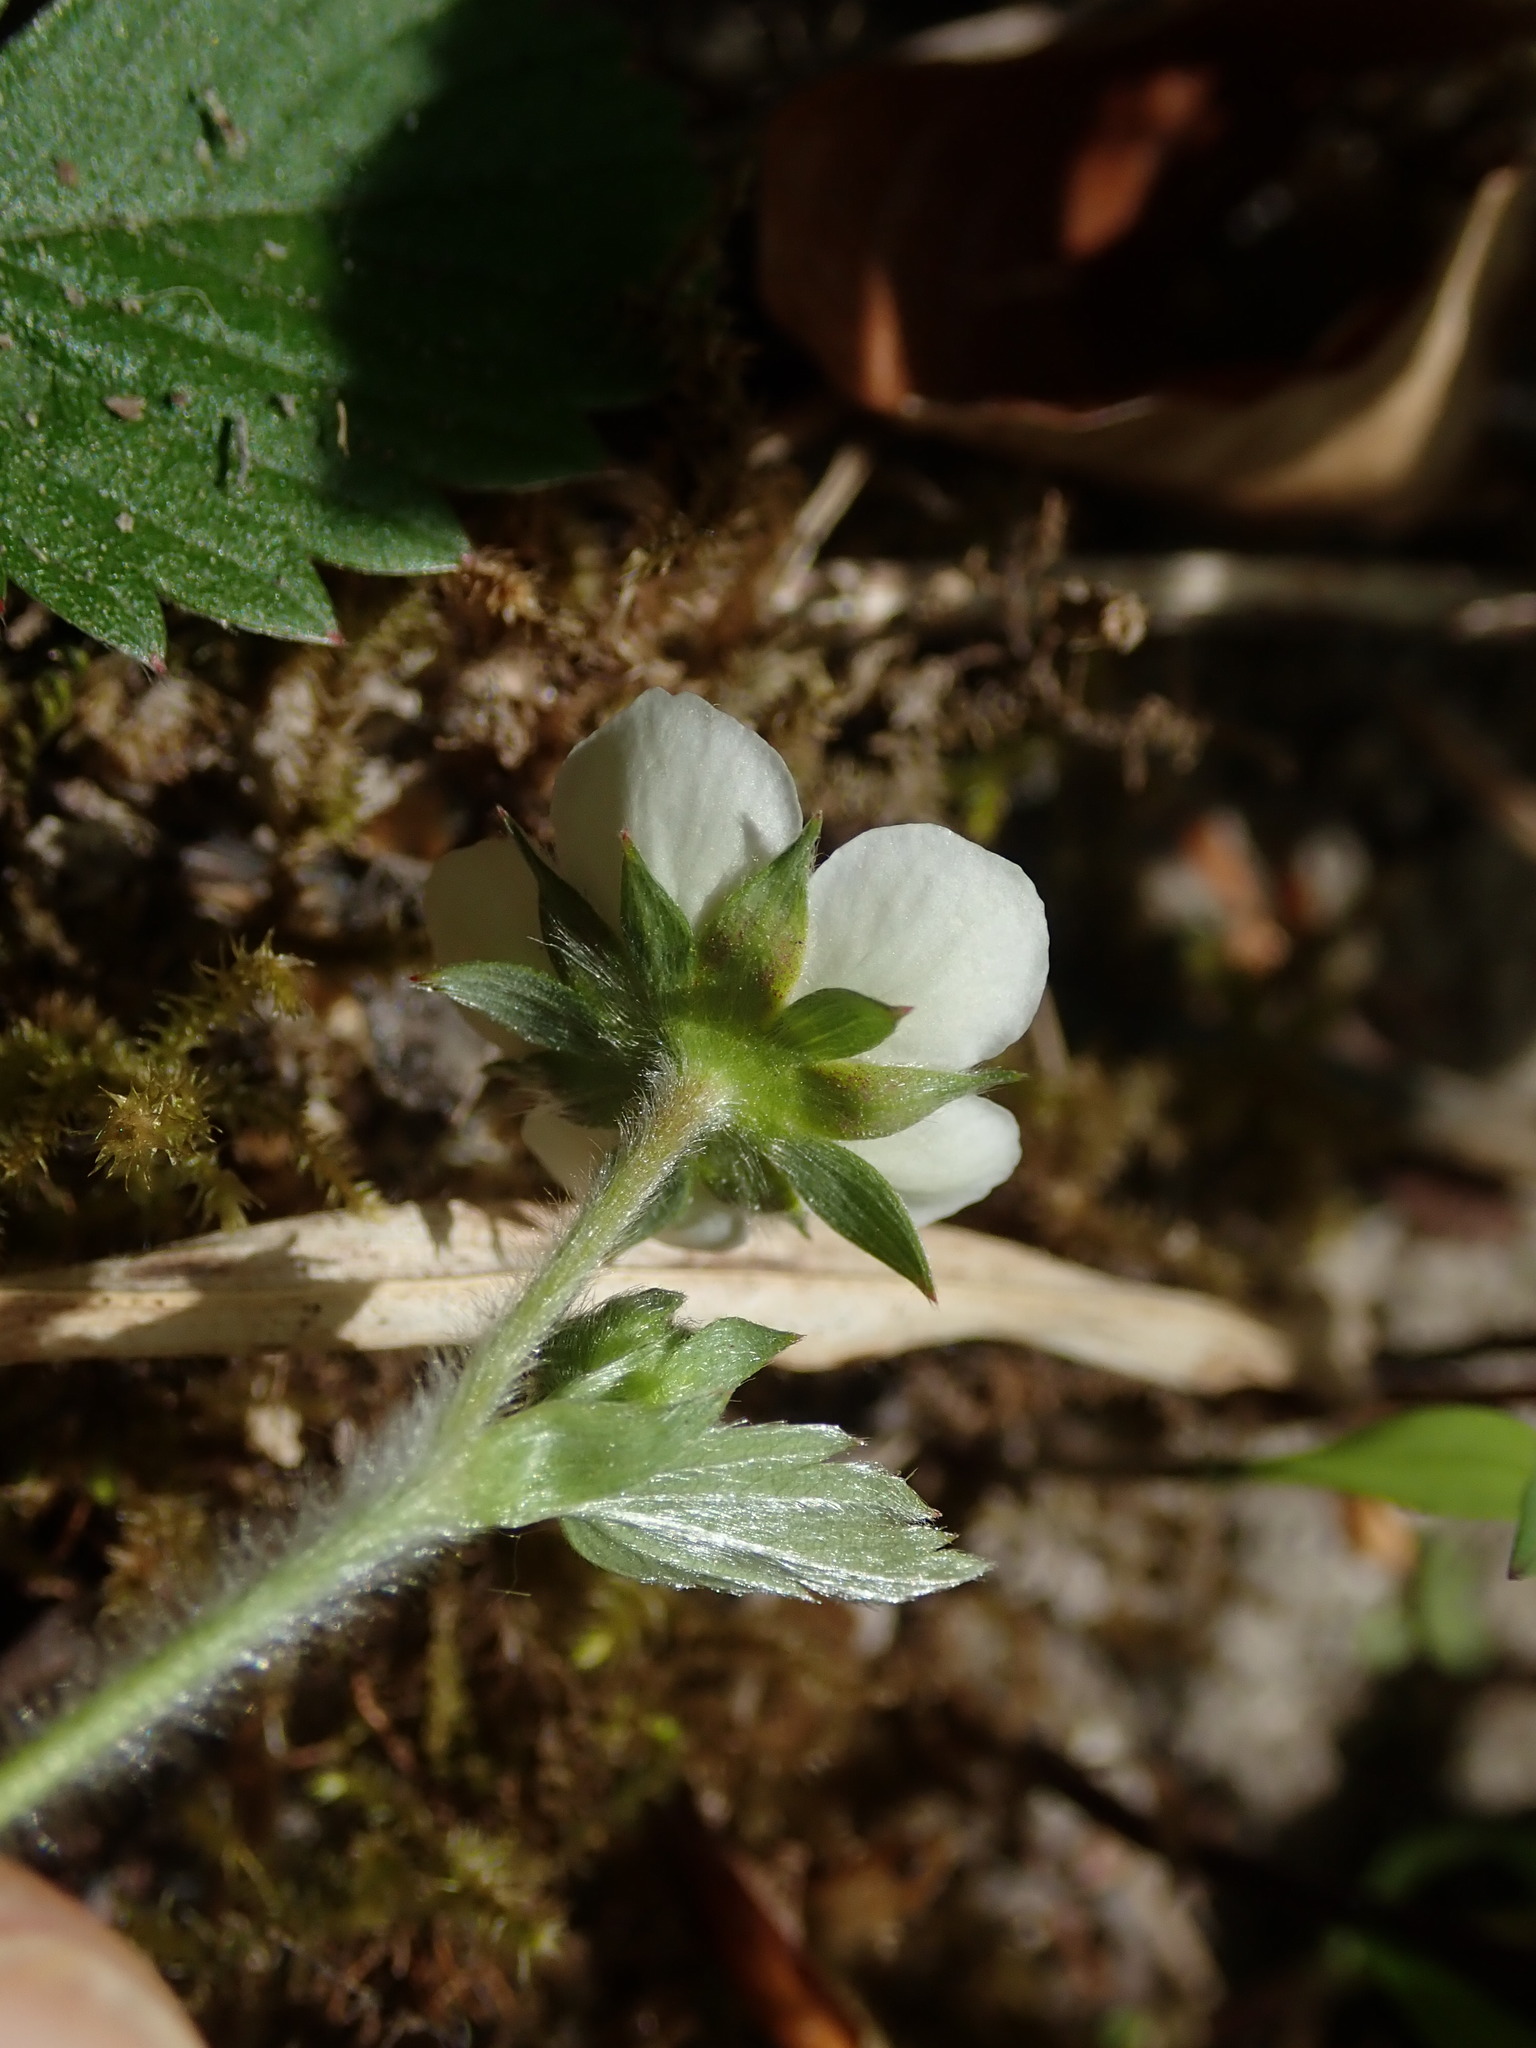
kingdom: Plantae
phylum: Tracheophyta
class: Magnoliopsida
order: Rosales
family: Rosaceae
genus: Fragaria
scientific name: Fragaria vesca
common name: Wild strawberry
